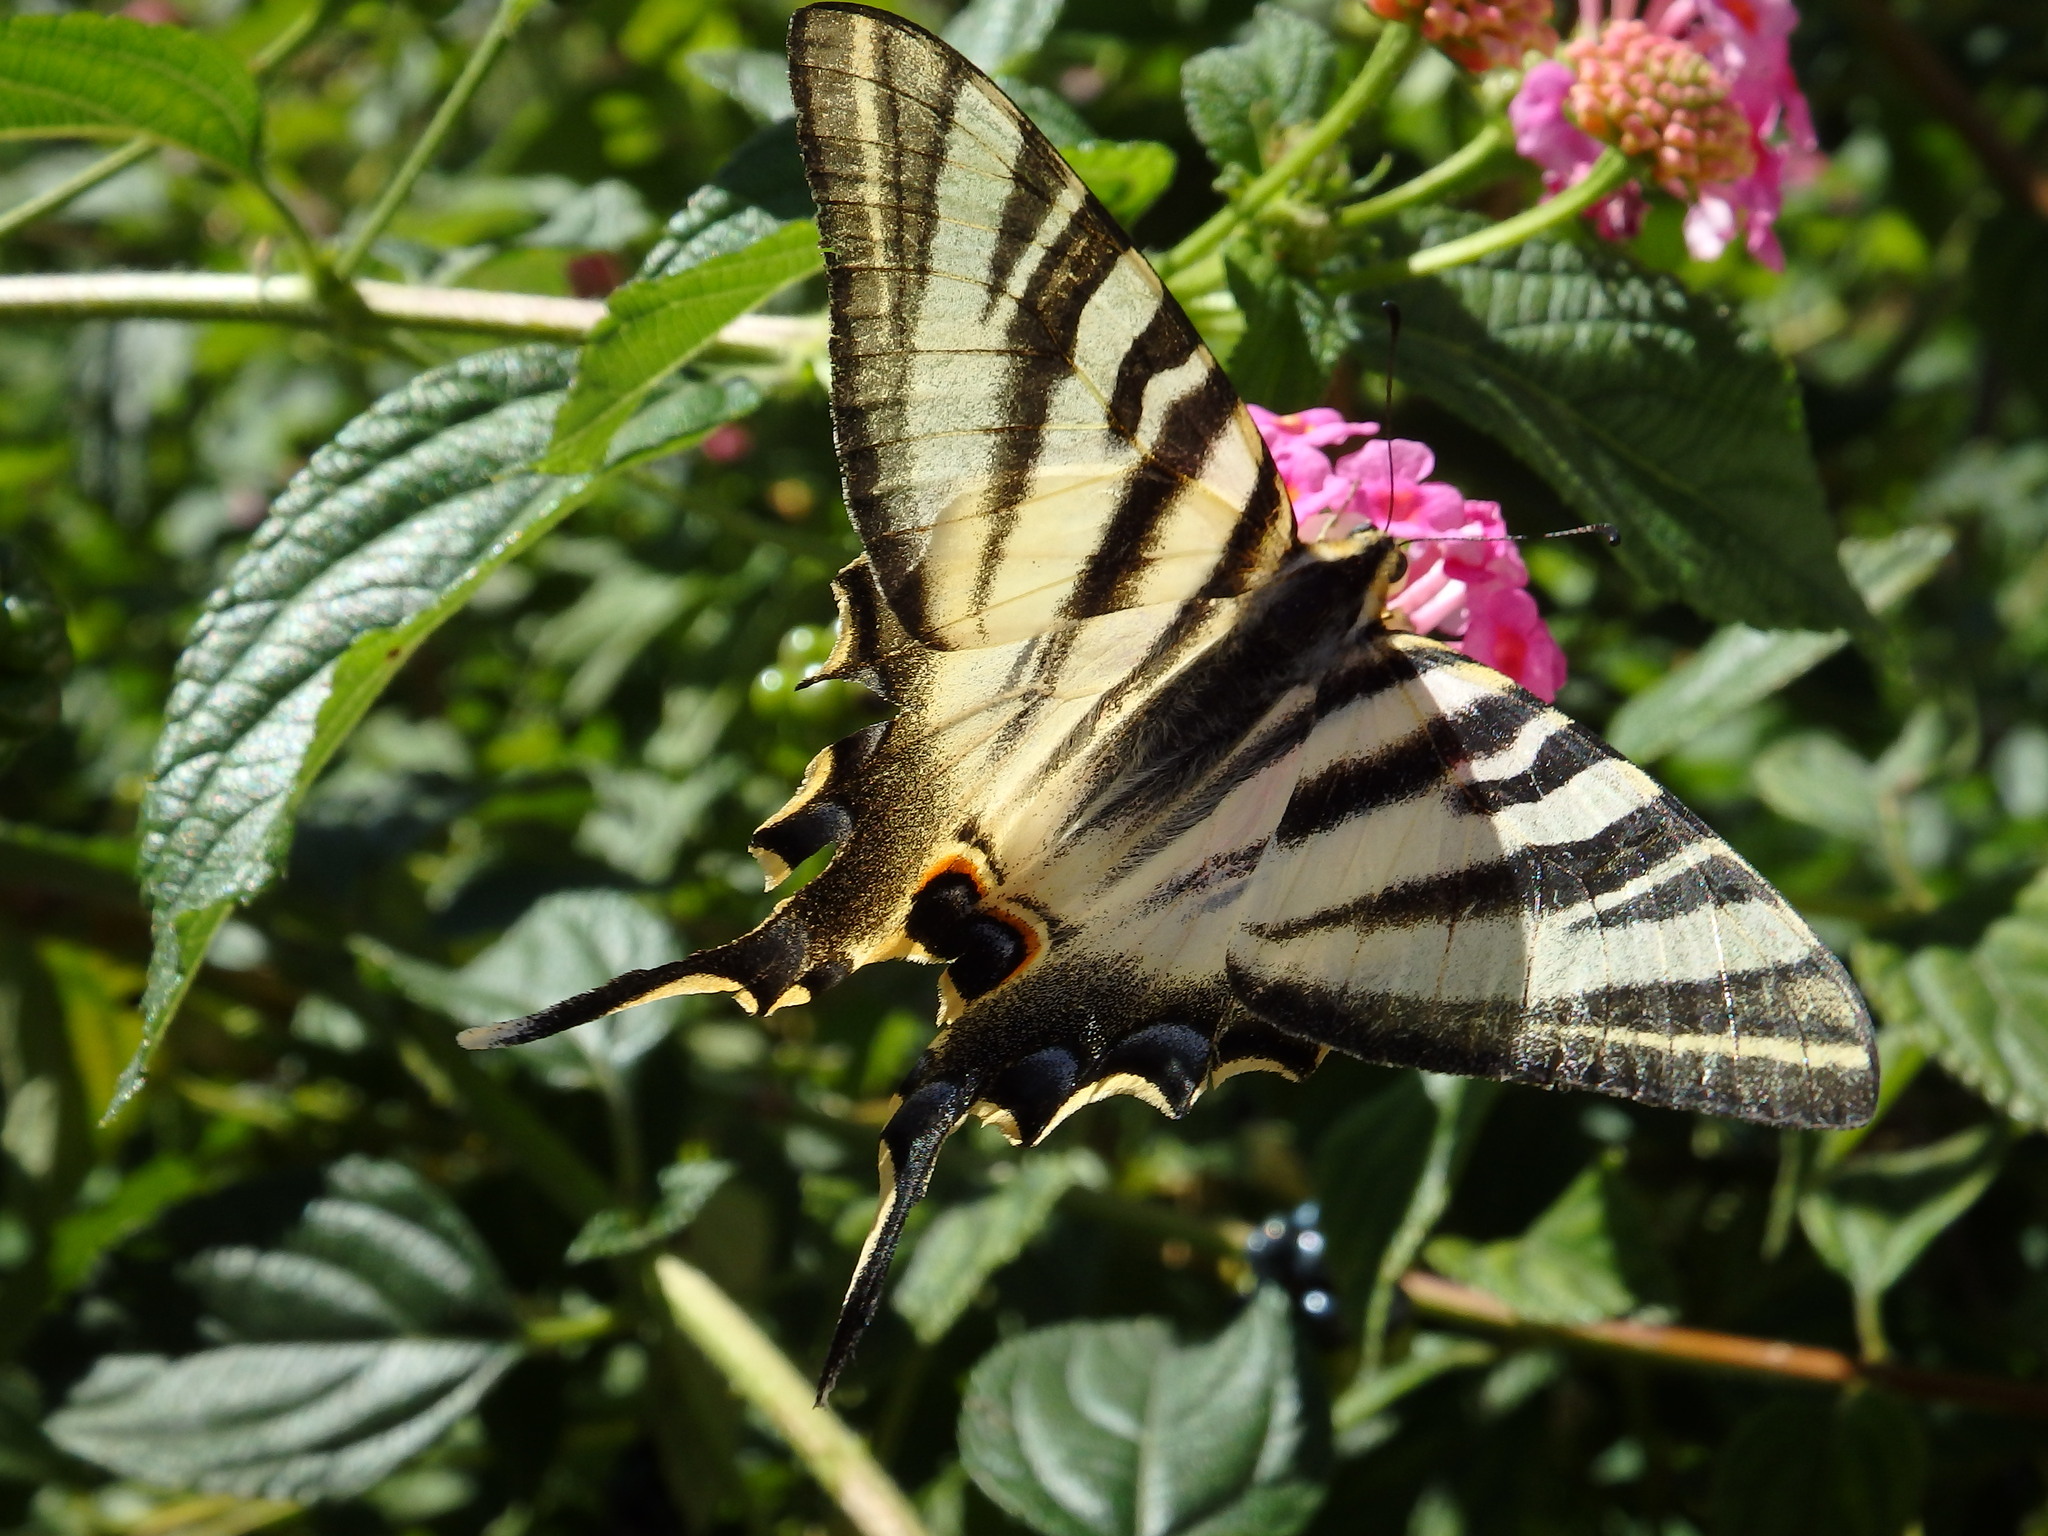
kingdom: Animalia
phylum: Arthropoda
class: Insecta
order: Lepidoptera
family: Papilionidae
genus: Iphiclides
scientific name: Iphiclides feisthamelii
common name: Iberian scarce swallowtail
